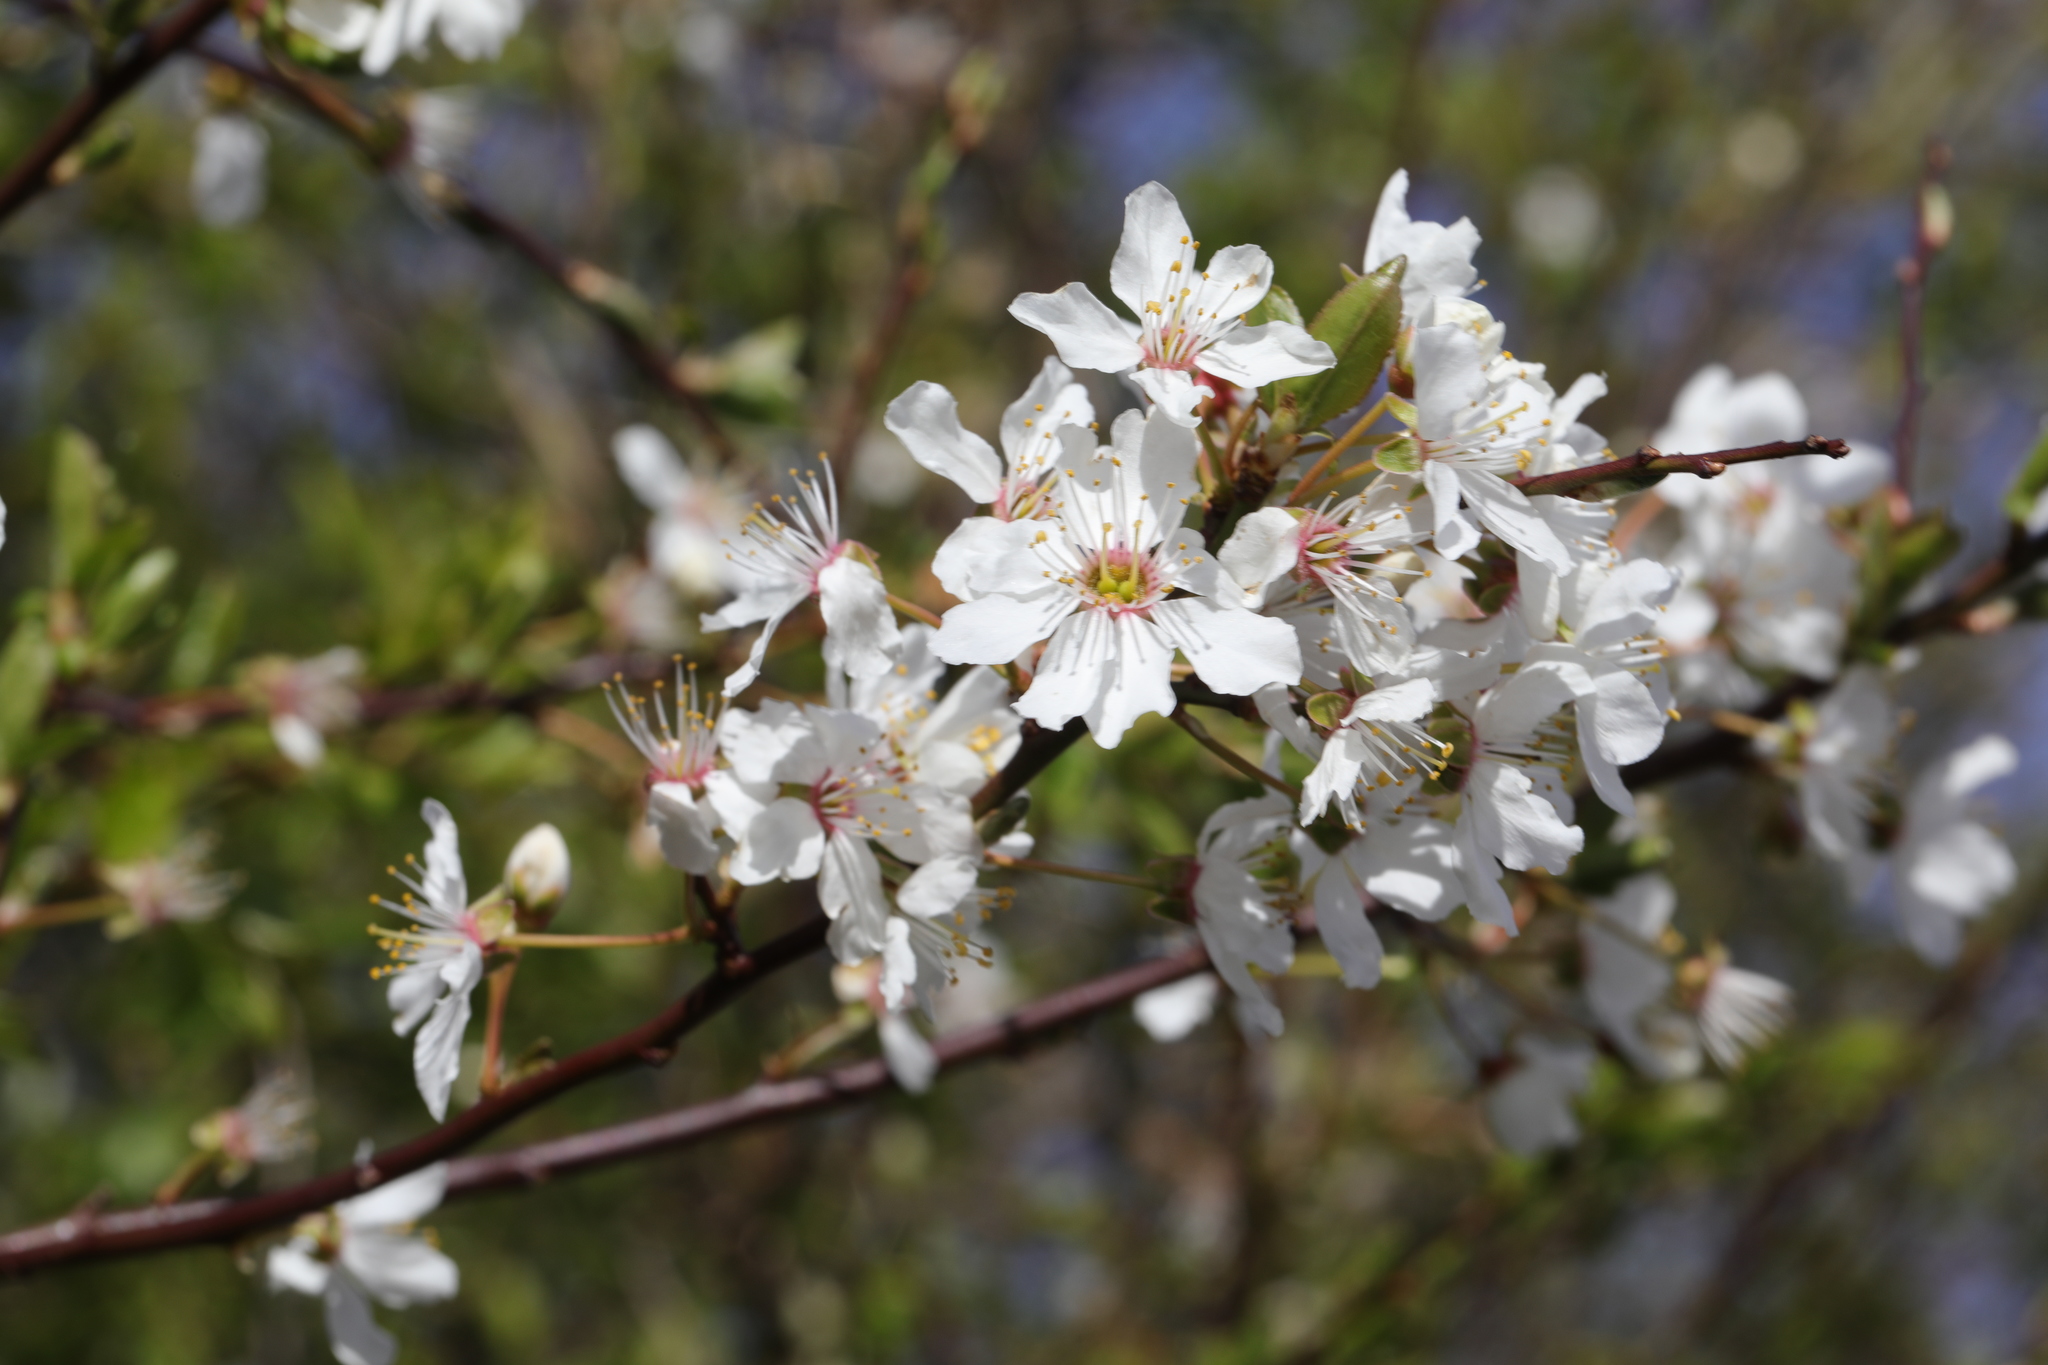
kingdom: Plantae
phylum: Tracheophyta
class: Magnoliopsida
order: Rosales
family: Rosaceae
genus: Prunus
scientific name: Prunus cerasifera
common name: Cherry plum
